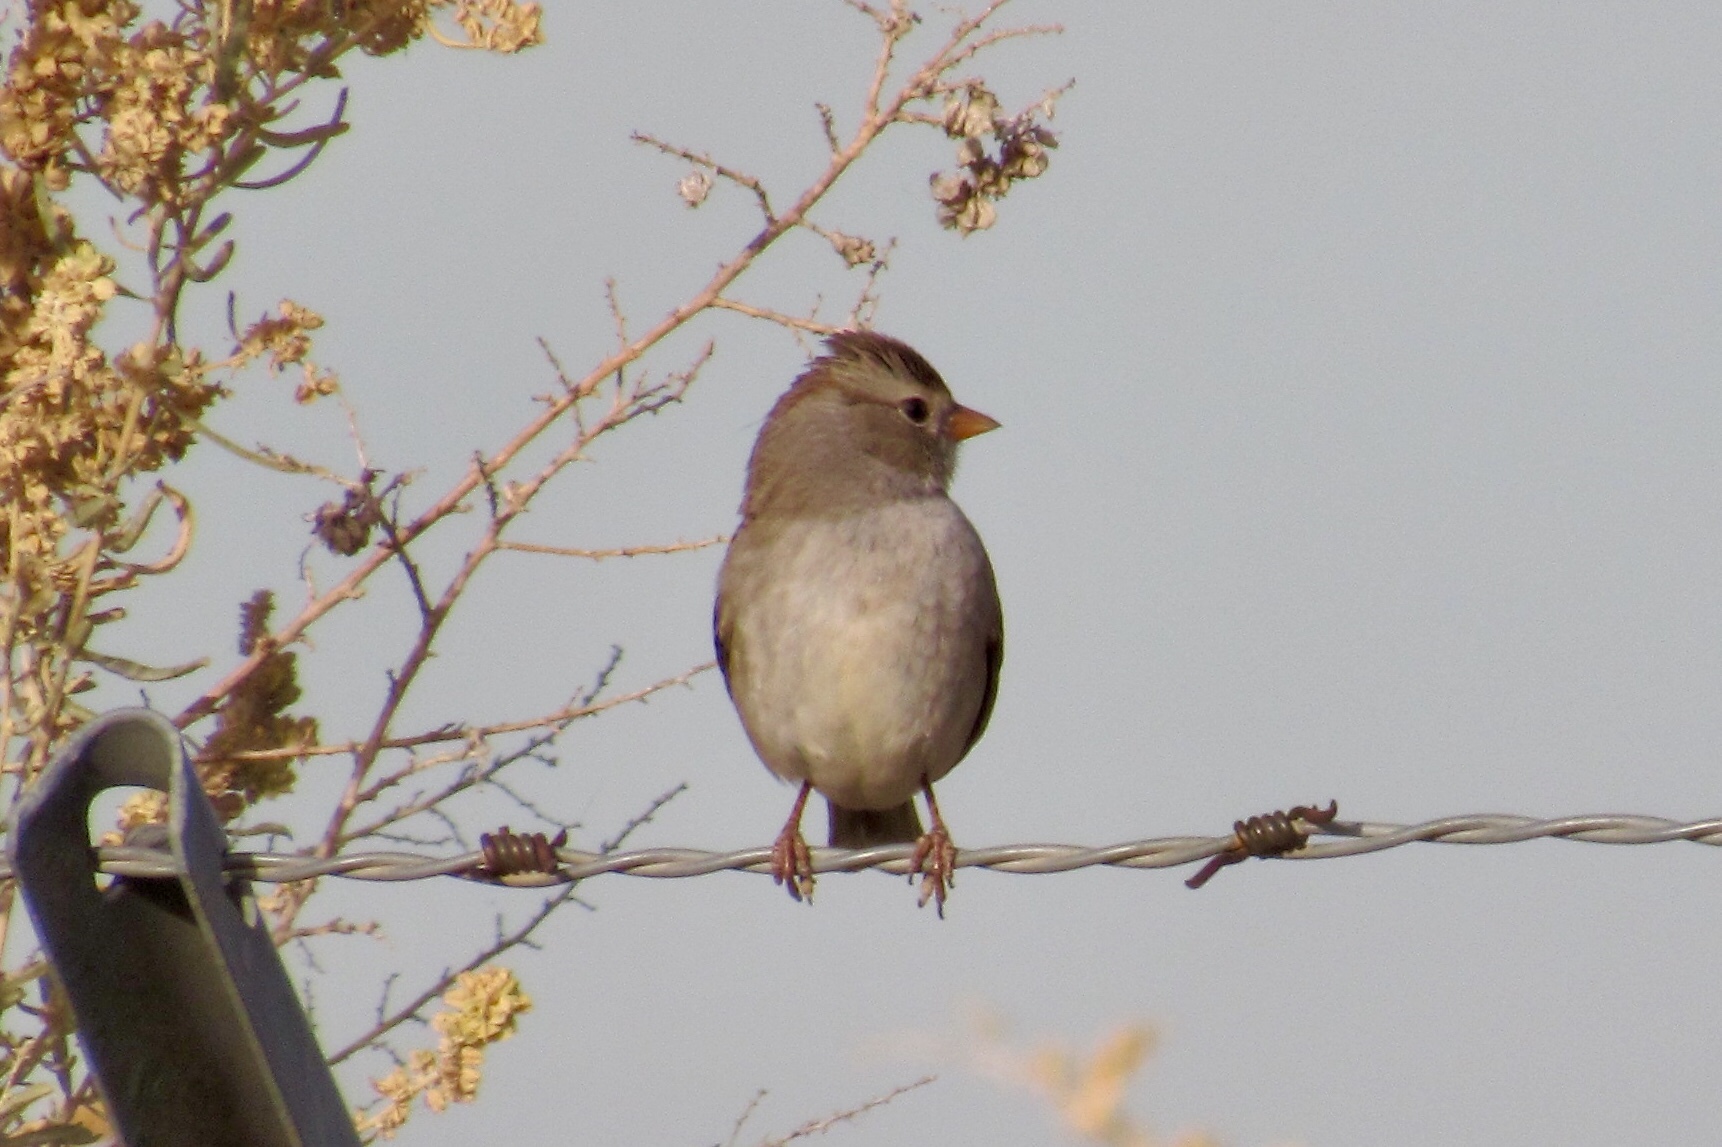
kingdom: Animalia
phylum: Chordata
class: Aves
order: Passeriformes
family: Passerellidae
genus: Zonotrichia
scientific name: Zonotrichia leucophrys
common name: White-crowned sparrow
